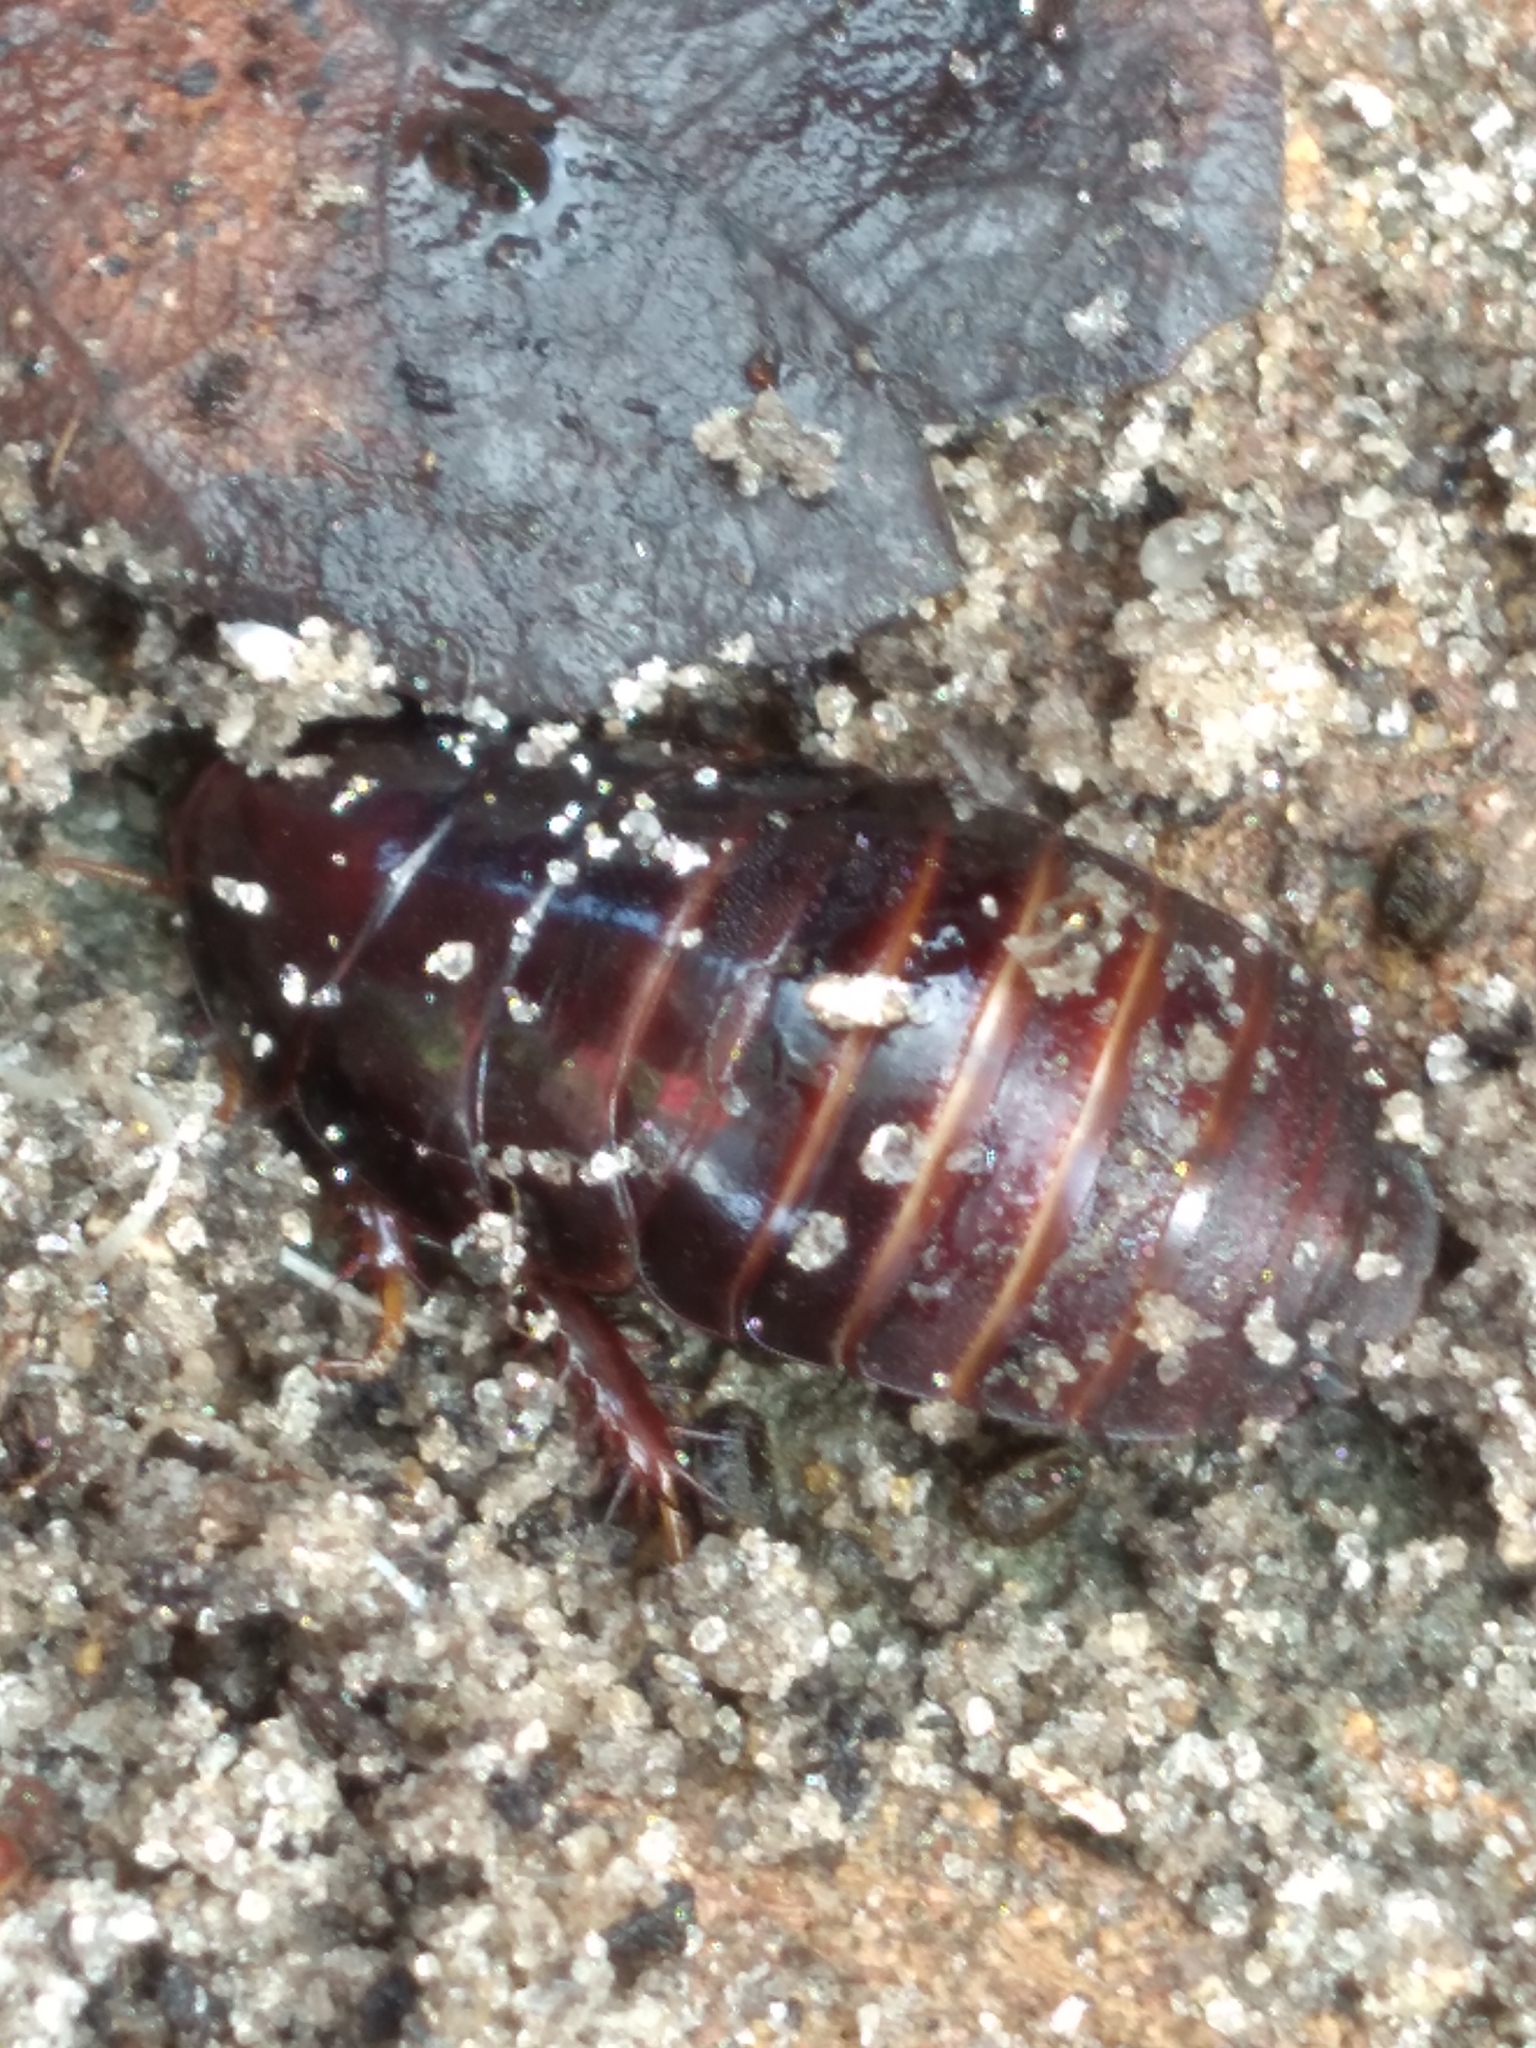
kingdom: Animalia
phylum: Arthropoda
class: Insecta
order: Blattodea
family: Blaberidae
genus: Pycnoscelus
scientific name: Pycnoscelus surinamensis
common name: Surinam cockroach
